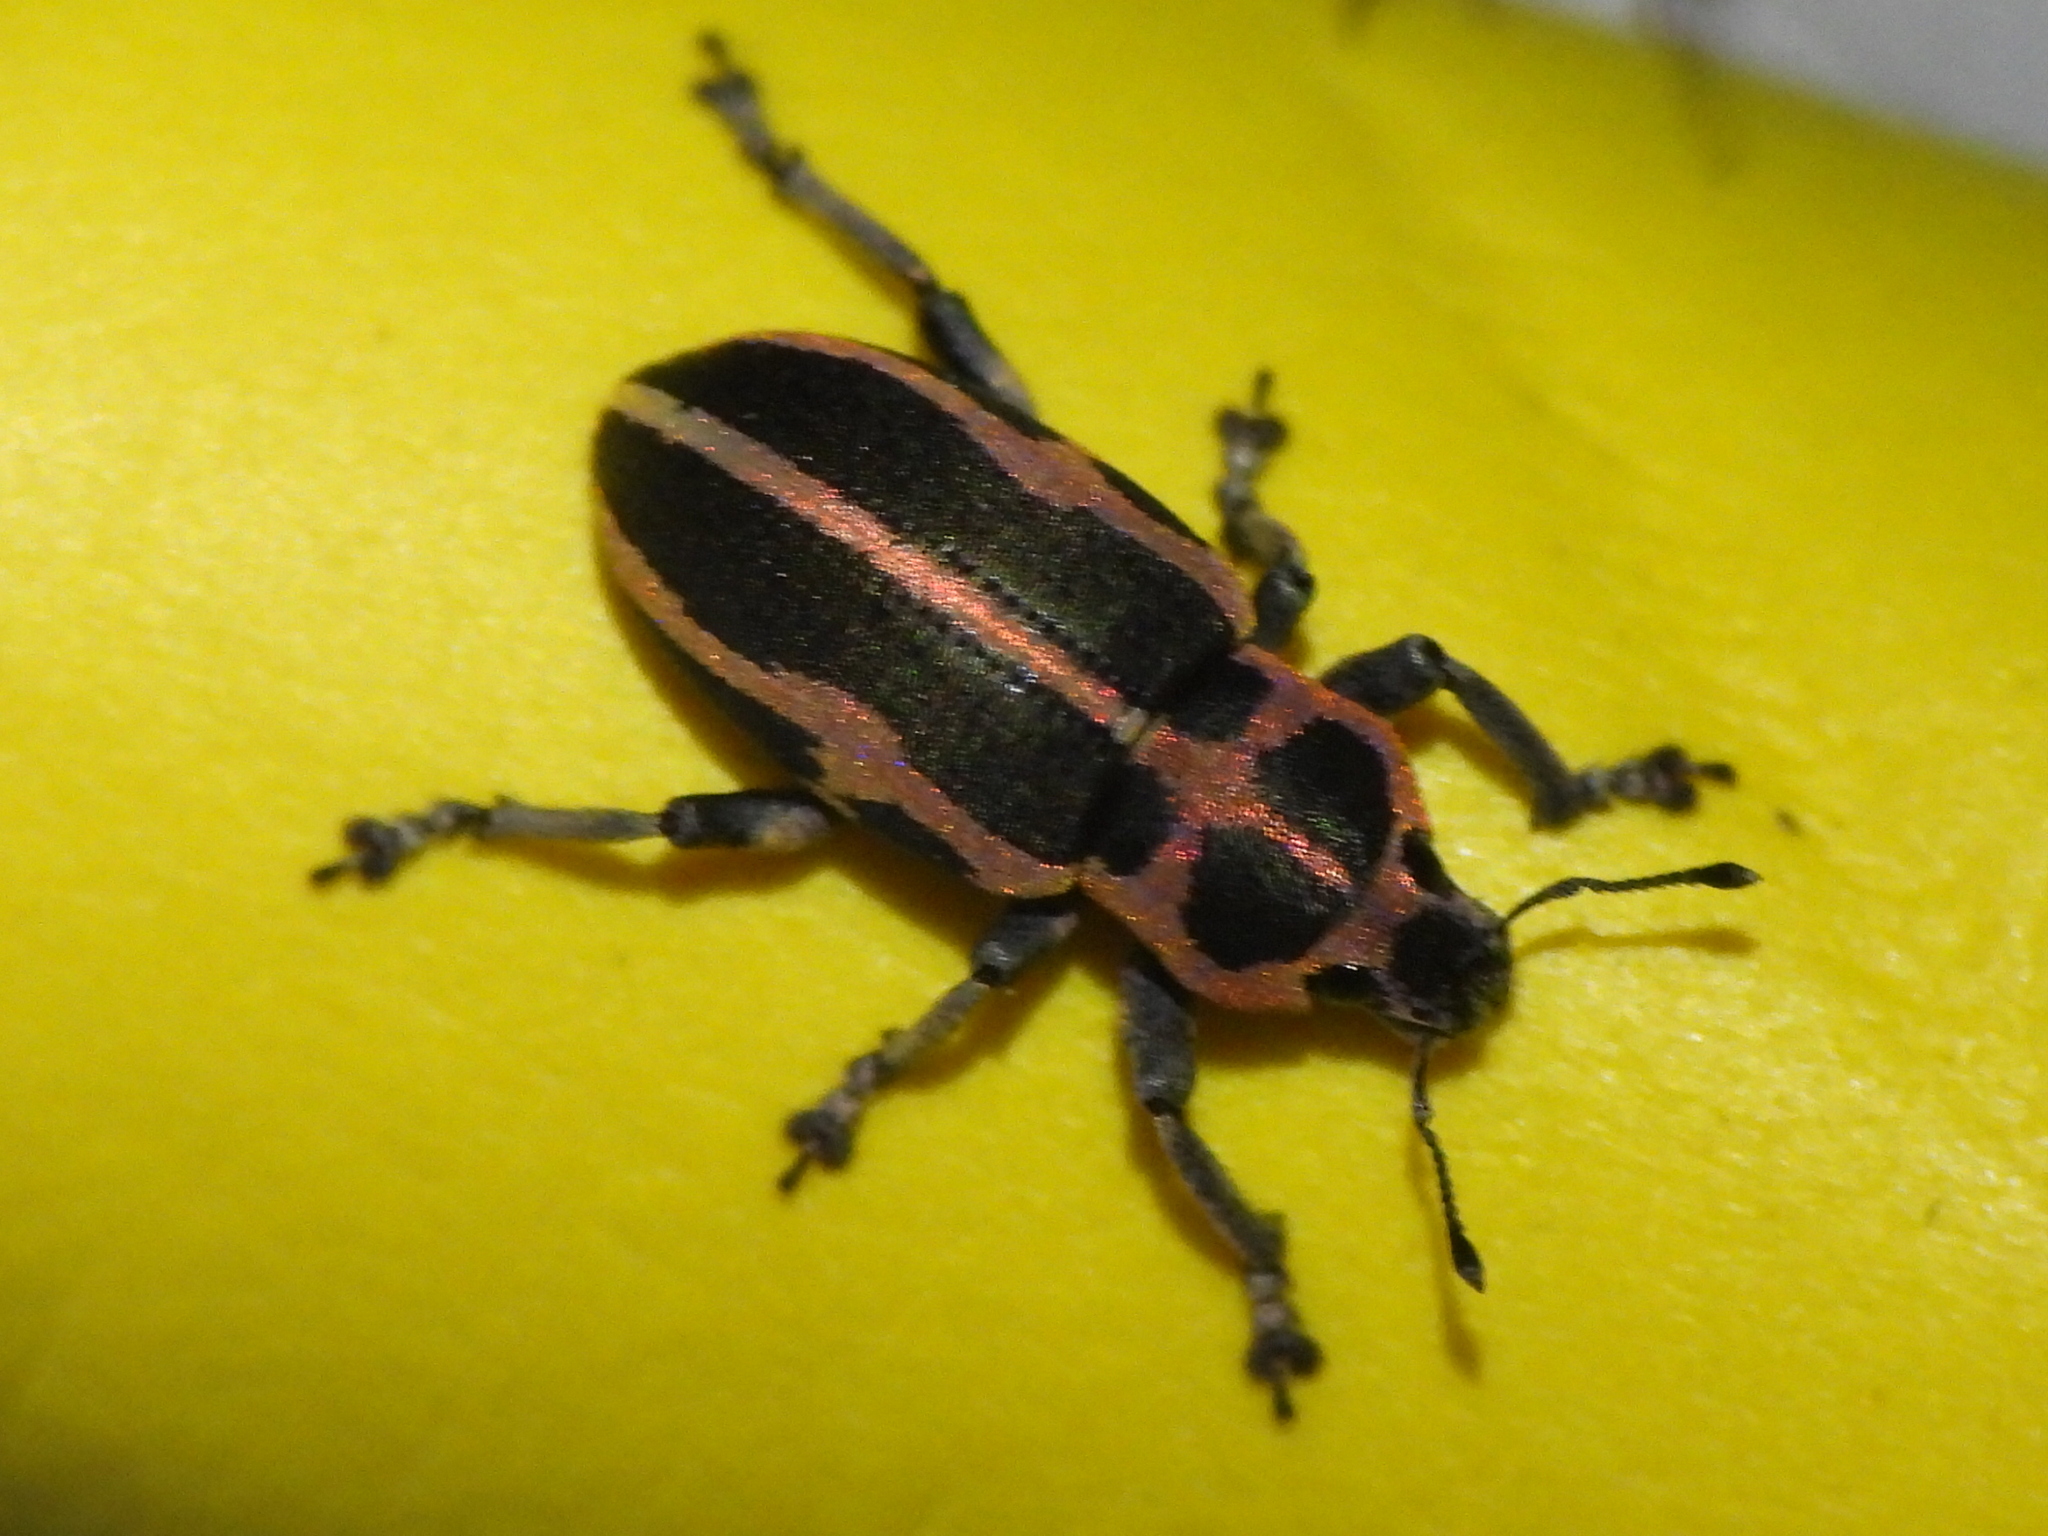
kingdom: Animalia
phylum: Arthropoda
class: Insecta
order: Coleoptera
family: Curculionidae
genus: Eudiagogus
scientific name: Eudiagogus pulcher
